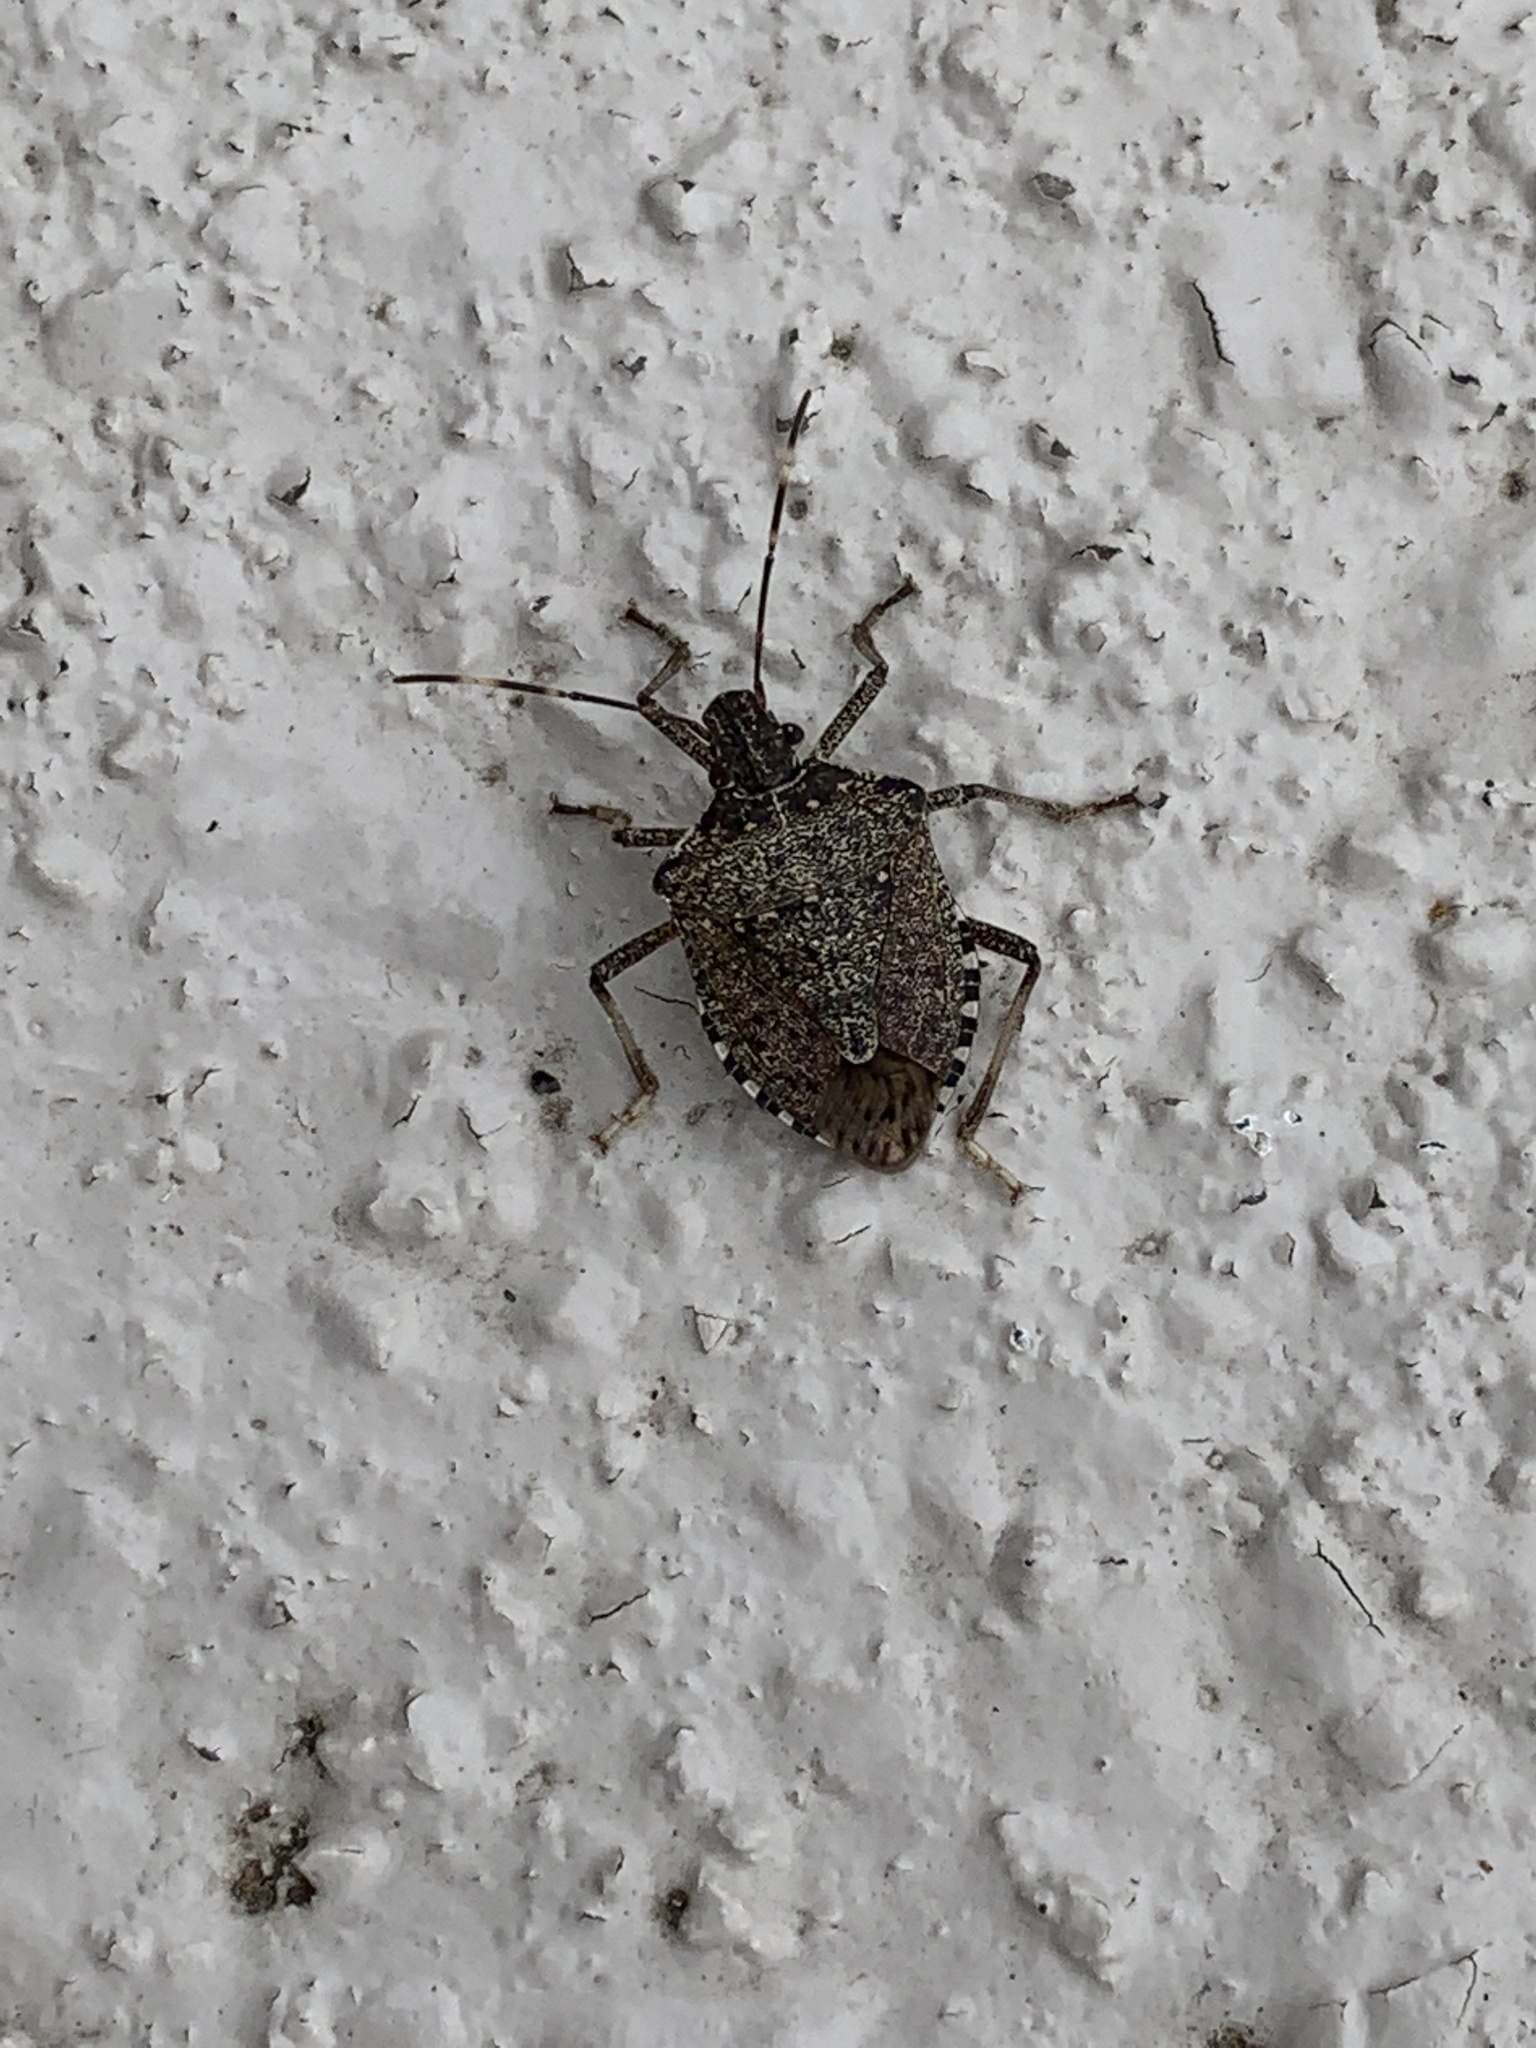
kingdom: Animalia
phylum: Arthropoda
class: Insecta
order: Hemiptera
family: Pentatomidae
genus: Halyomorpha
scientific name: Halyomorpha halys
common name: Brown marmorated stink bug
